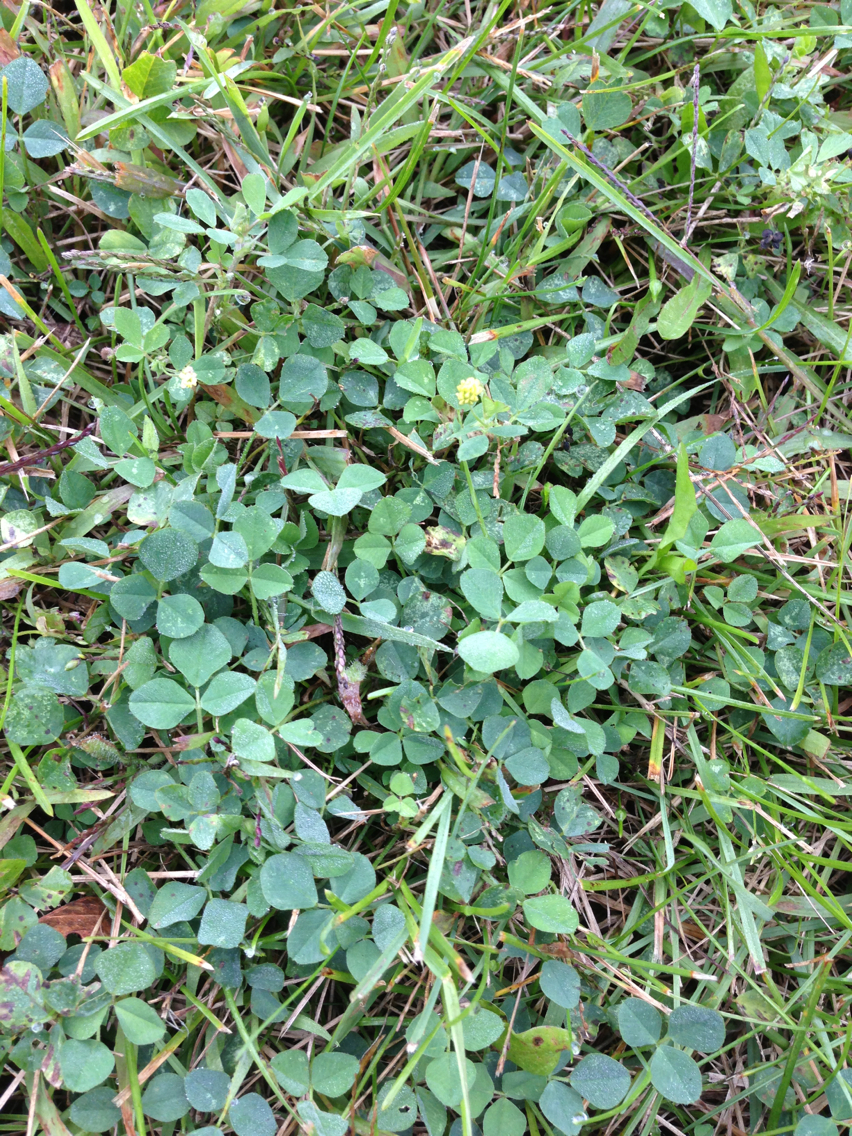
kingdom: Plantae
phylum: Tracheophyta
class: Magnoliopsida
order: Fabales
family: Fabaceae
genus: Medicago
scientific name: Medicago lupulina
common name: Black medick
